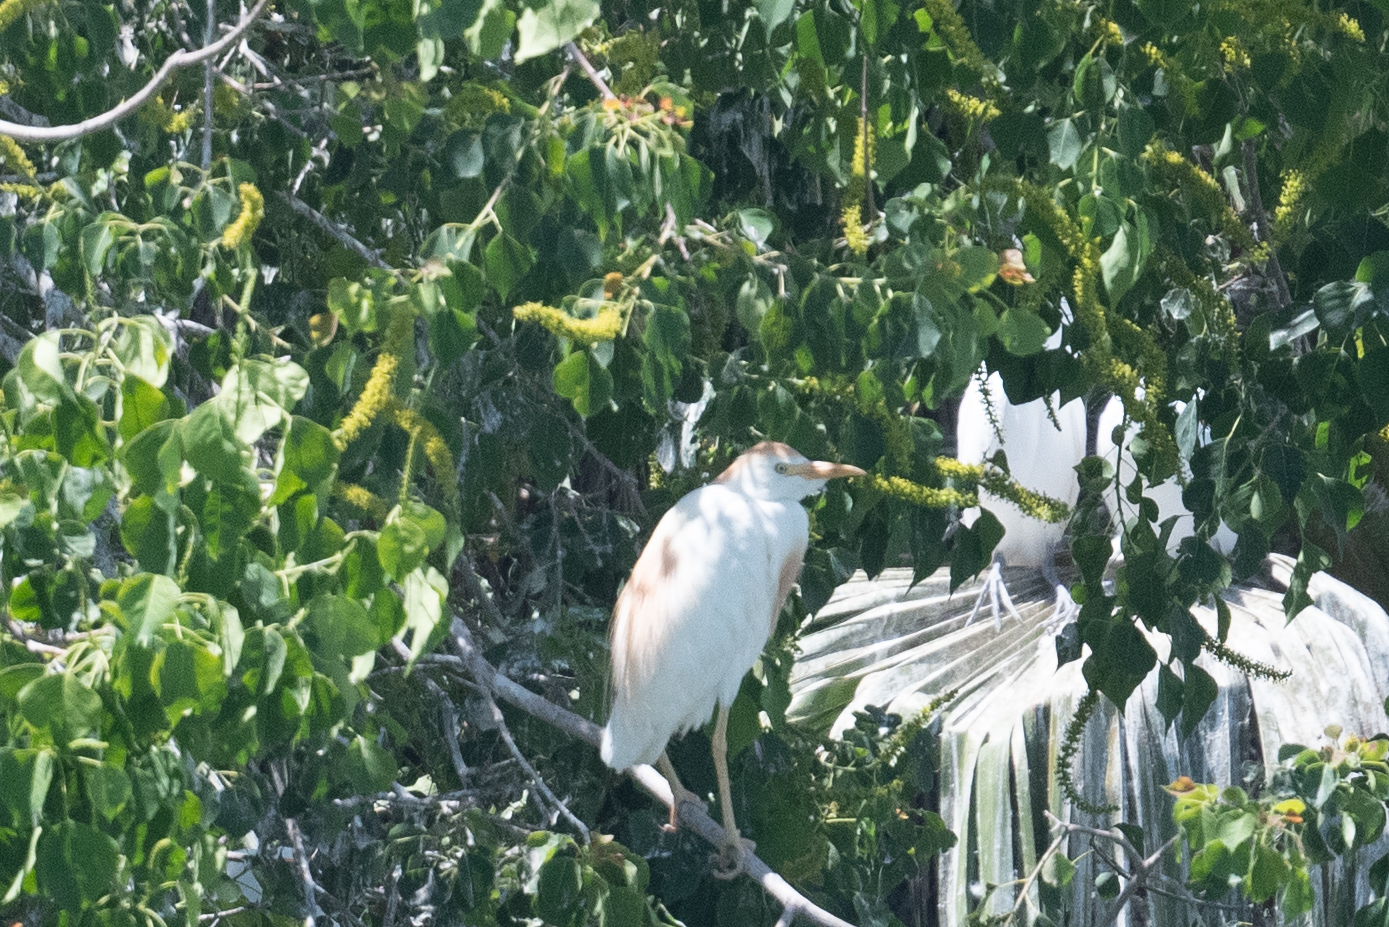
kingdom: Animalia
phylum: Chordata
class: Aves
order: Pelecaniformes
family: Ardeidae
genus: Bubulcus
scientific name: Bubulcus ibis
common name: Cattle egret
